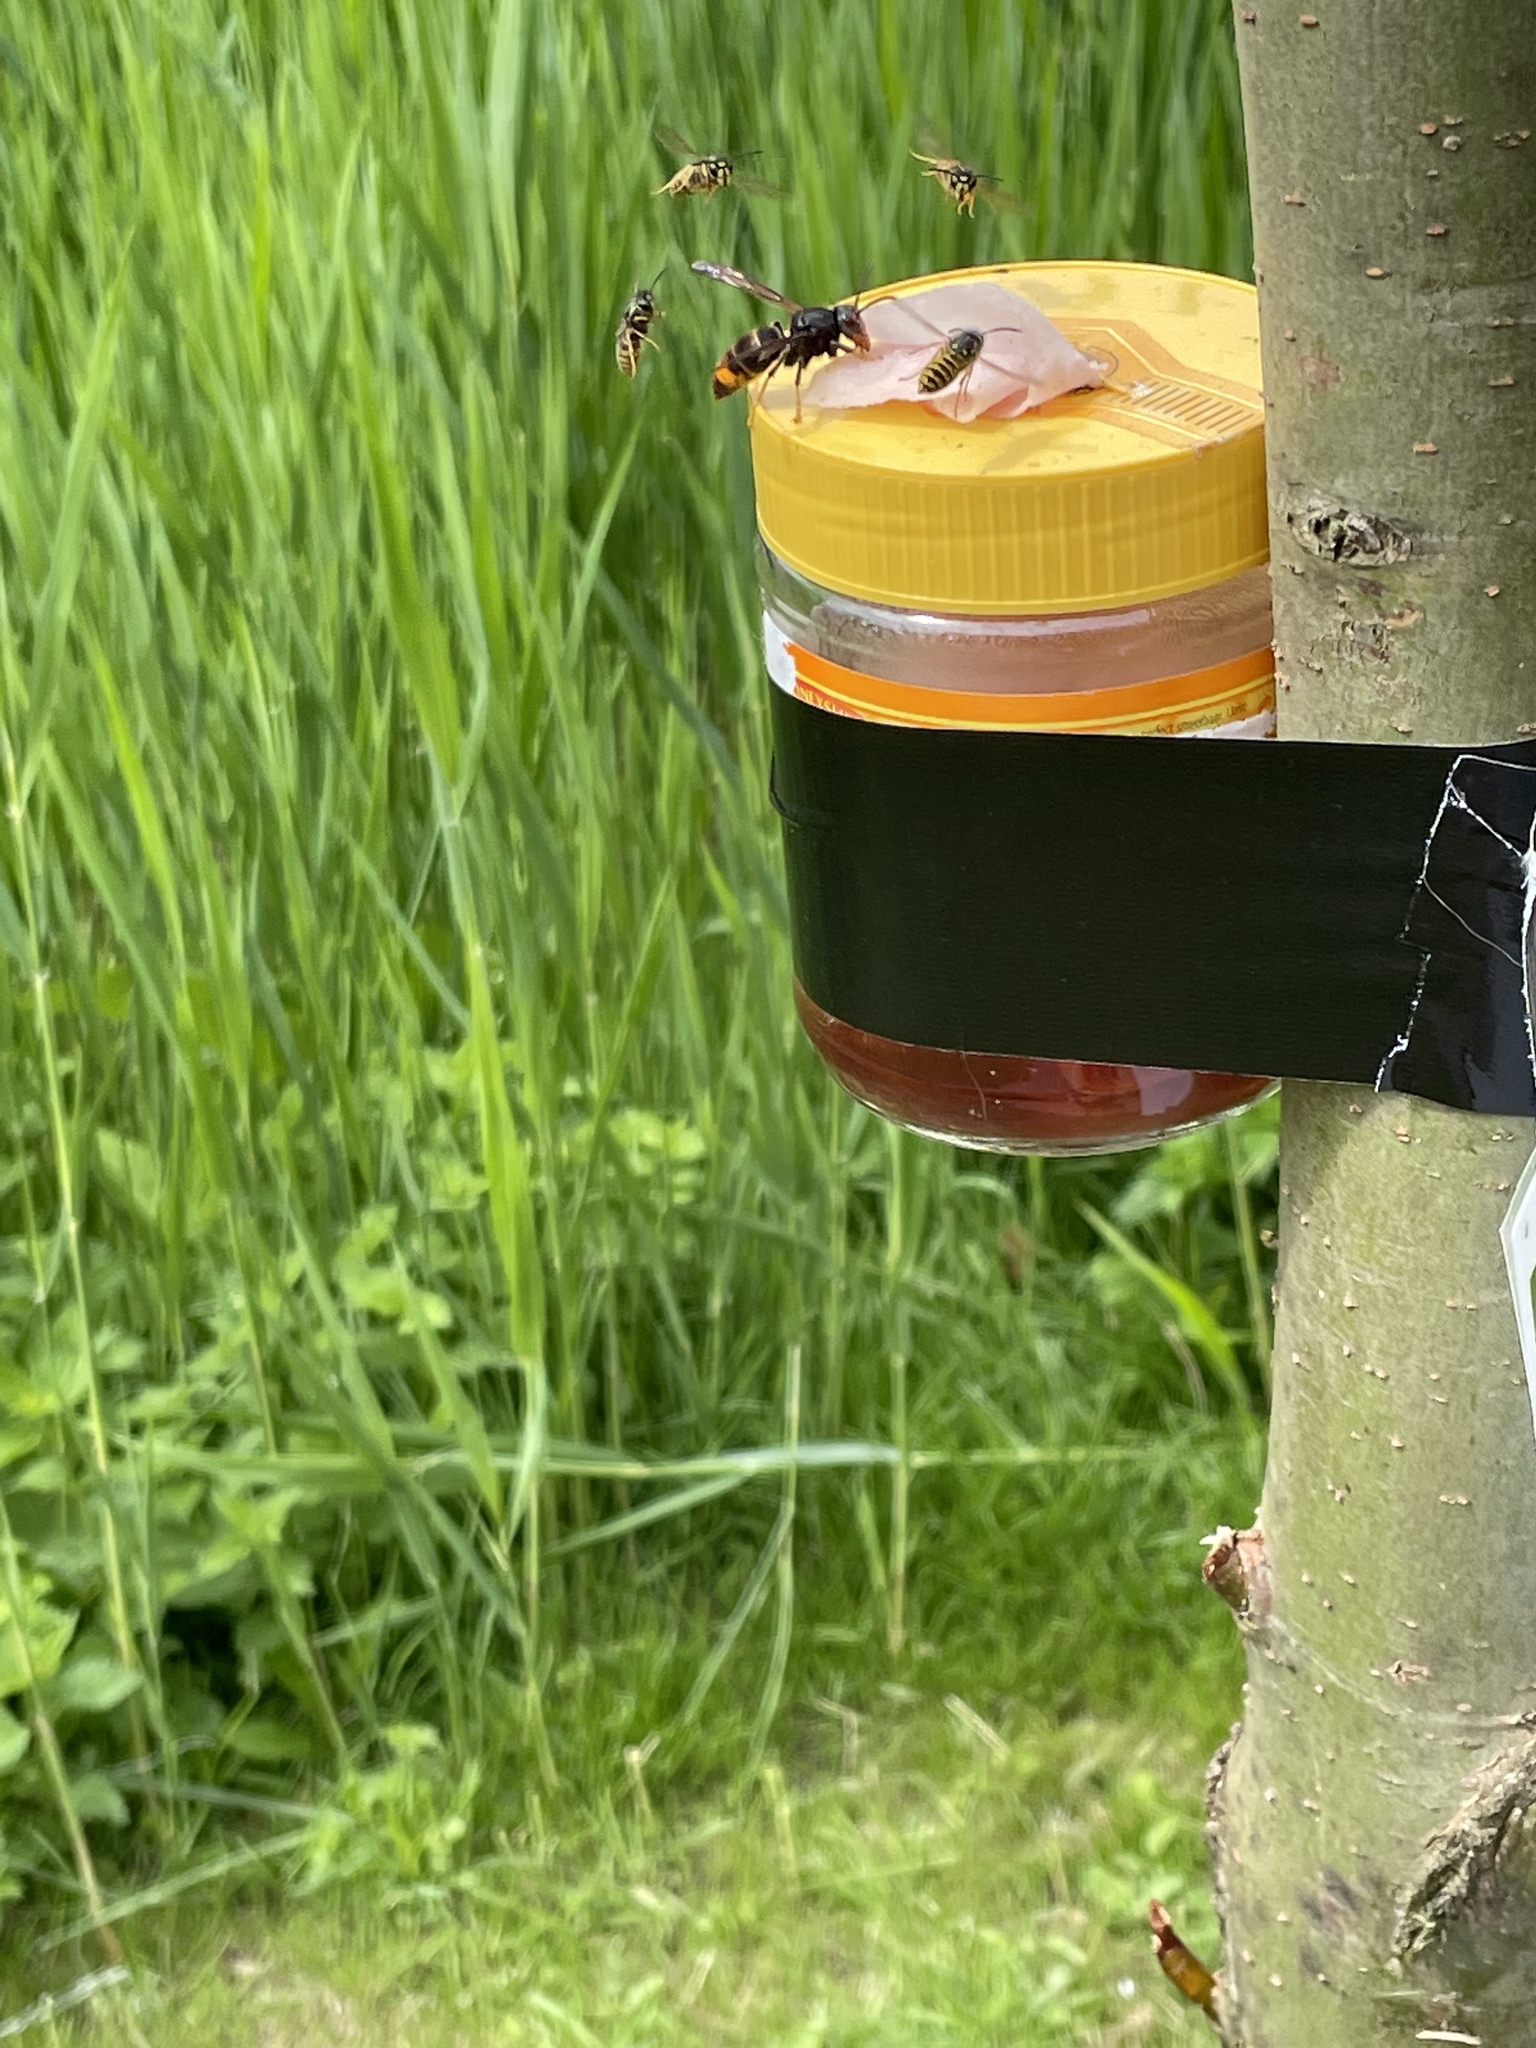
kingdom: Animalia
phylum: Arthropoda
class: Insecta
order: Hymenoptera
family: Vespidae
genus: Vespa
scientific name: Vespa velutina
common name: Asian hornet
